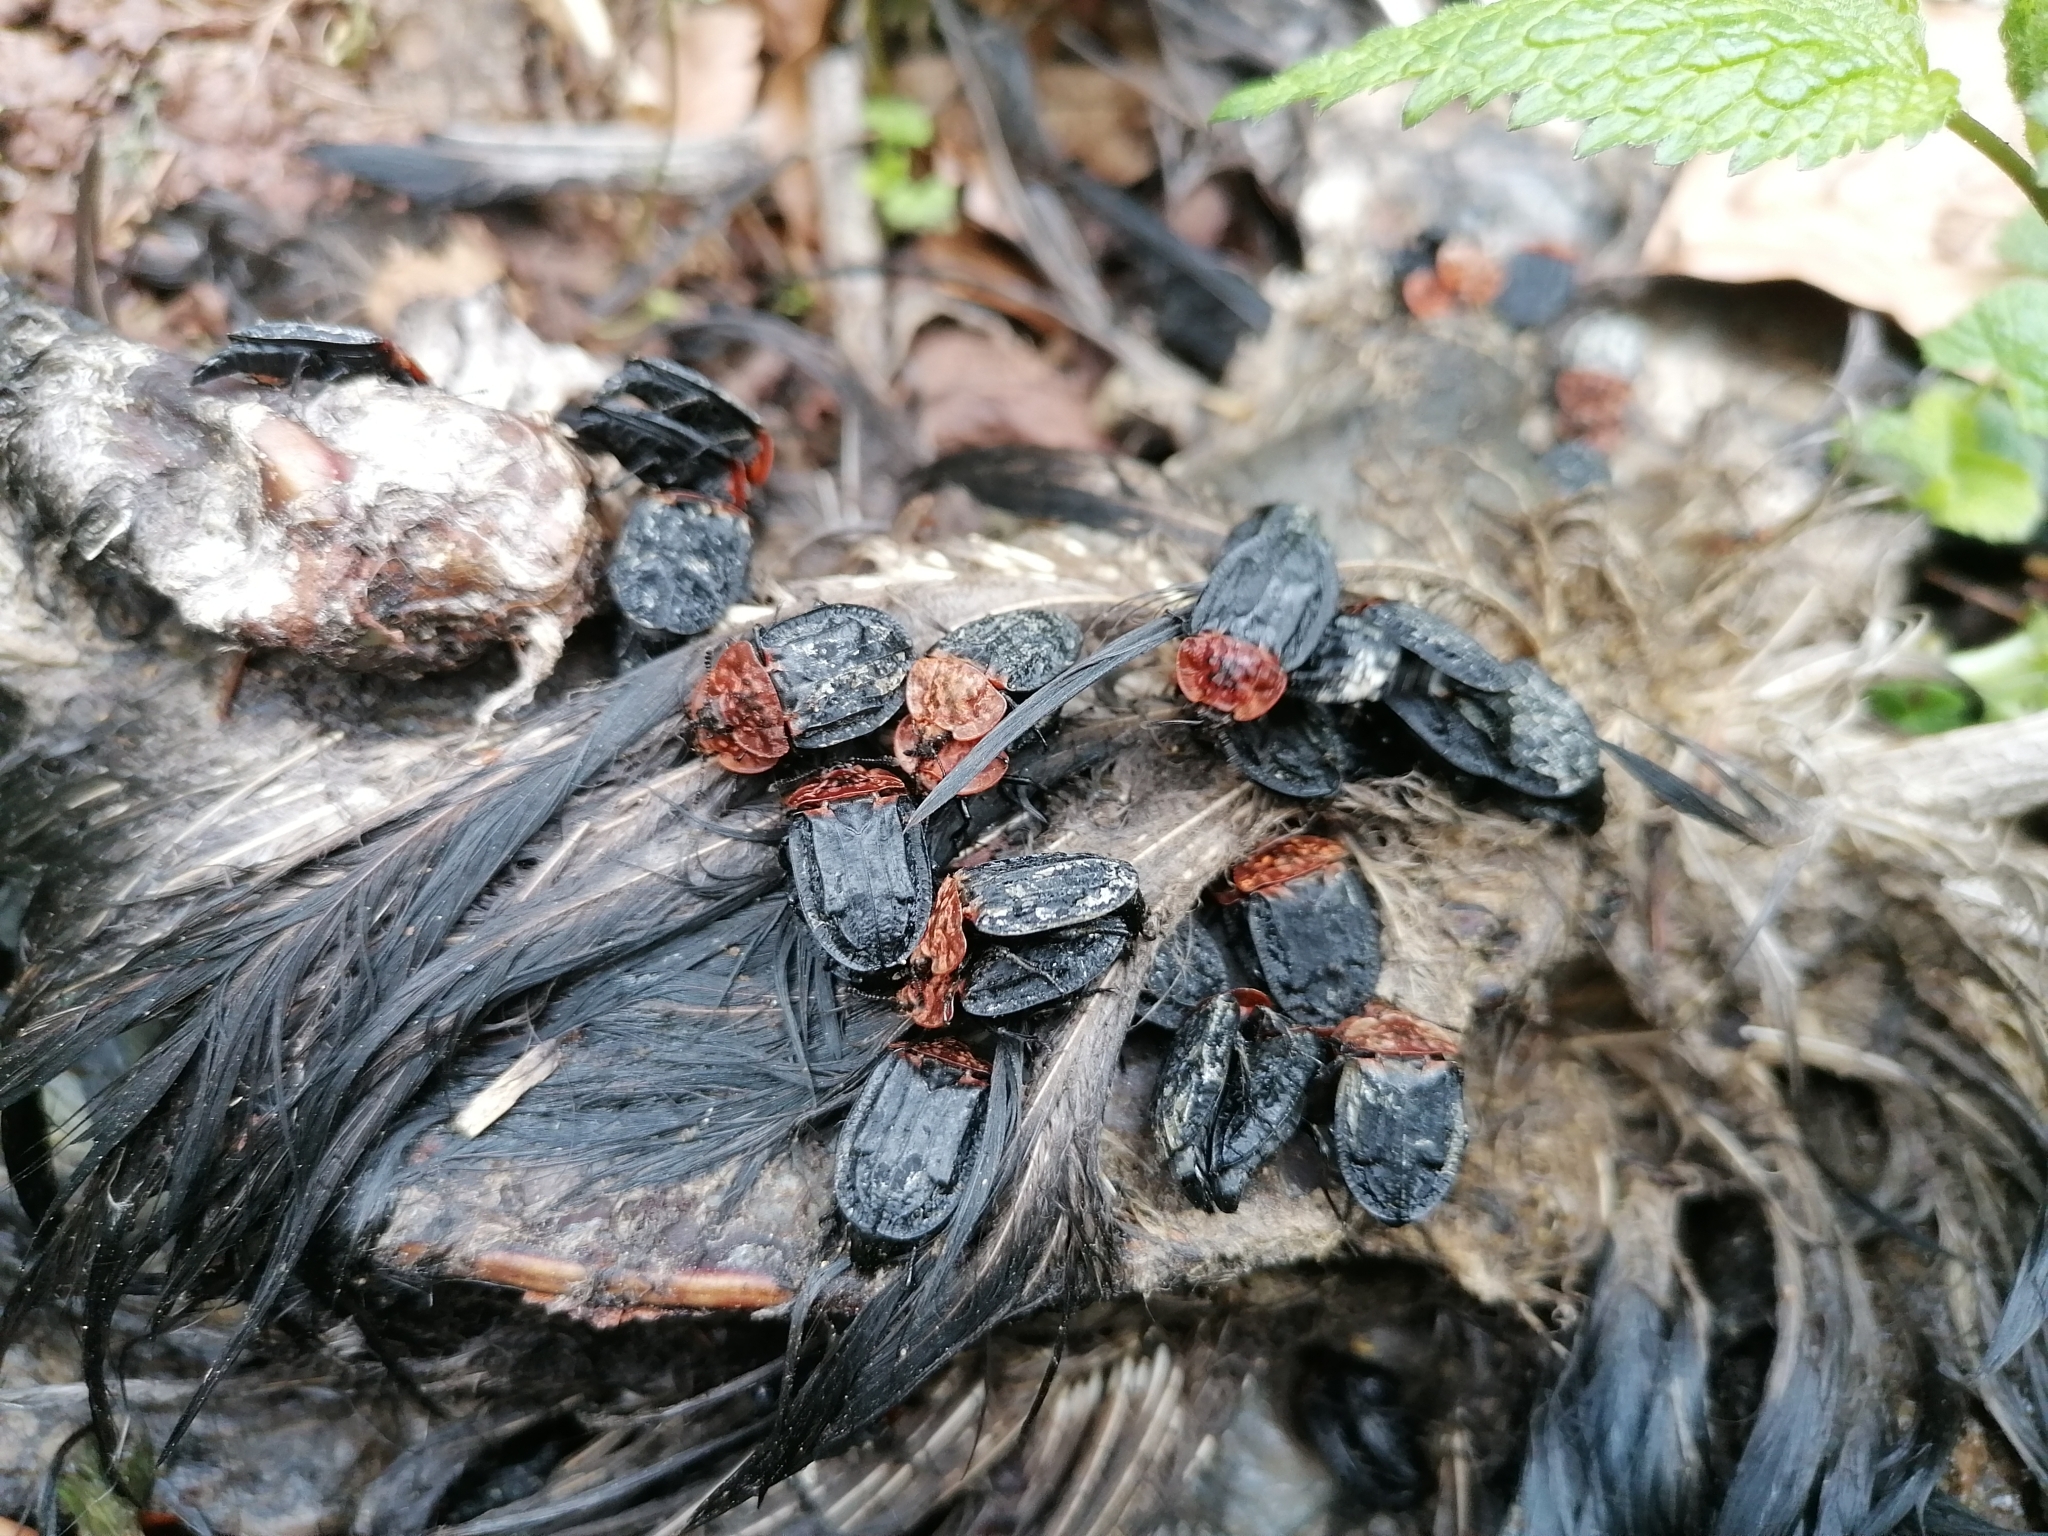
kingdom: Animalia
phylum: Arthropoda
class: Insecta
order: Coleoptera
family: Staphylinidae
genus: Oiceoptoma
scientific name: Oiceoptoma thoracicum
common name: Red-breasted carrion beetle
